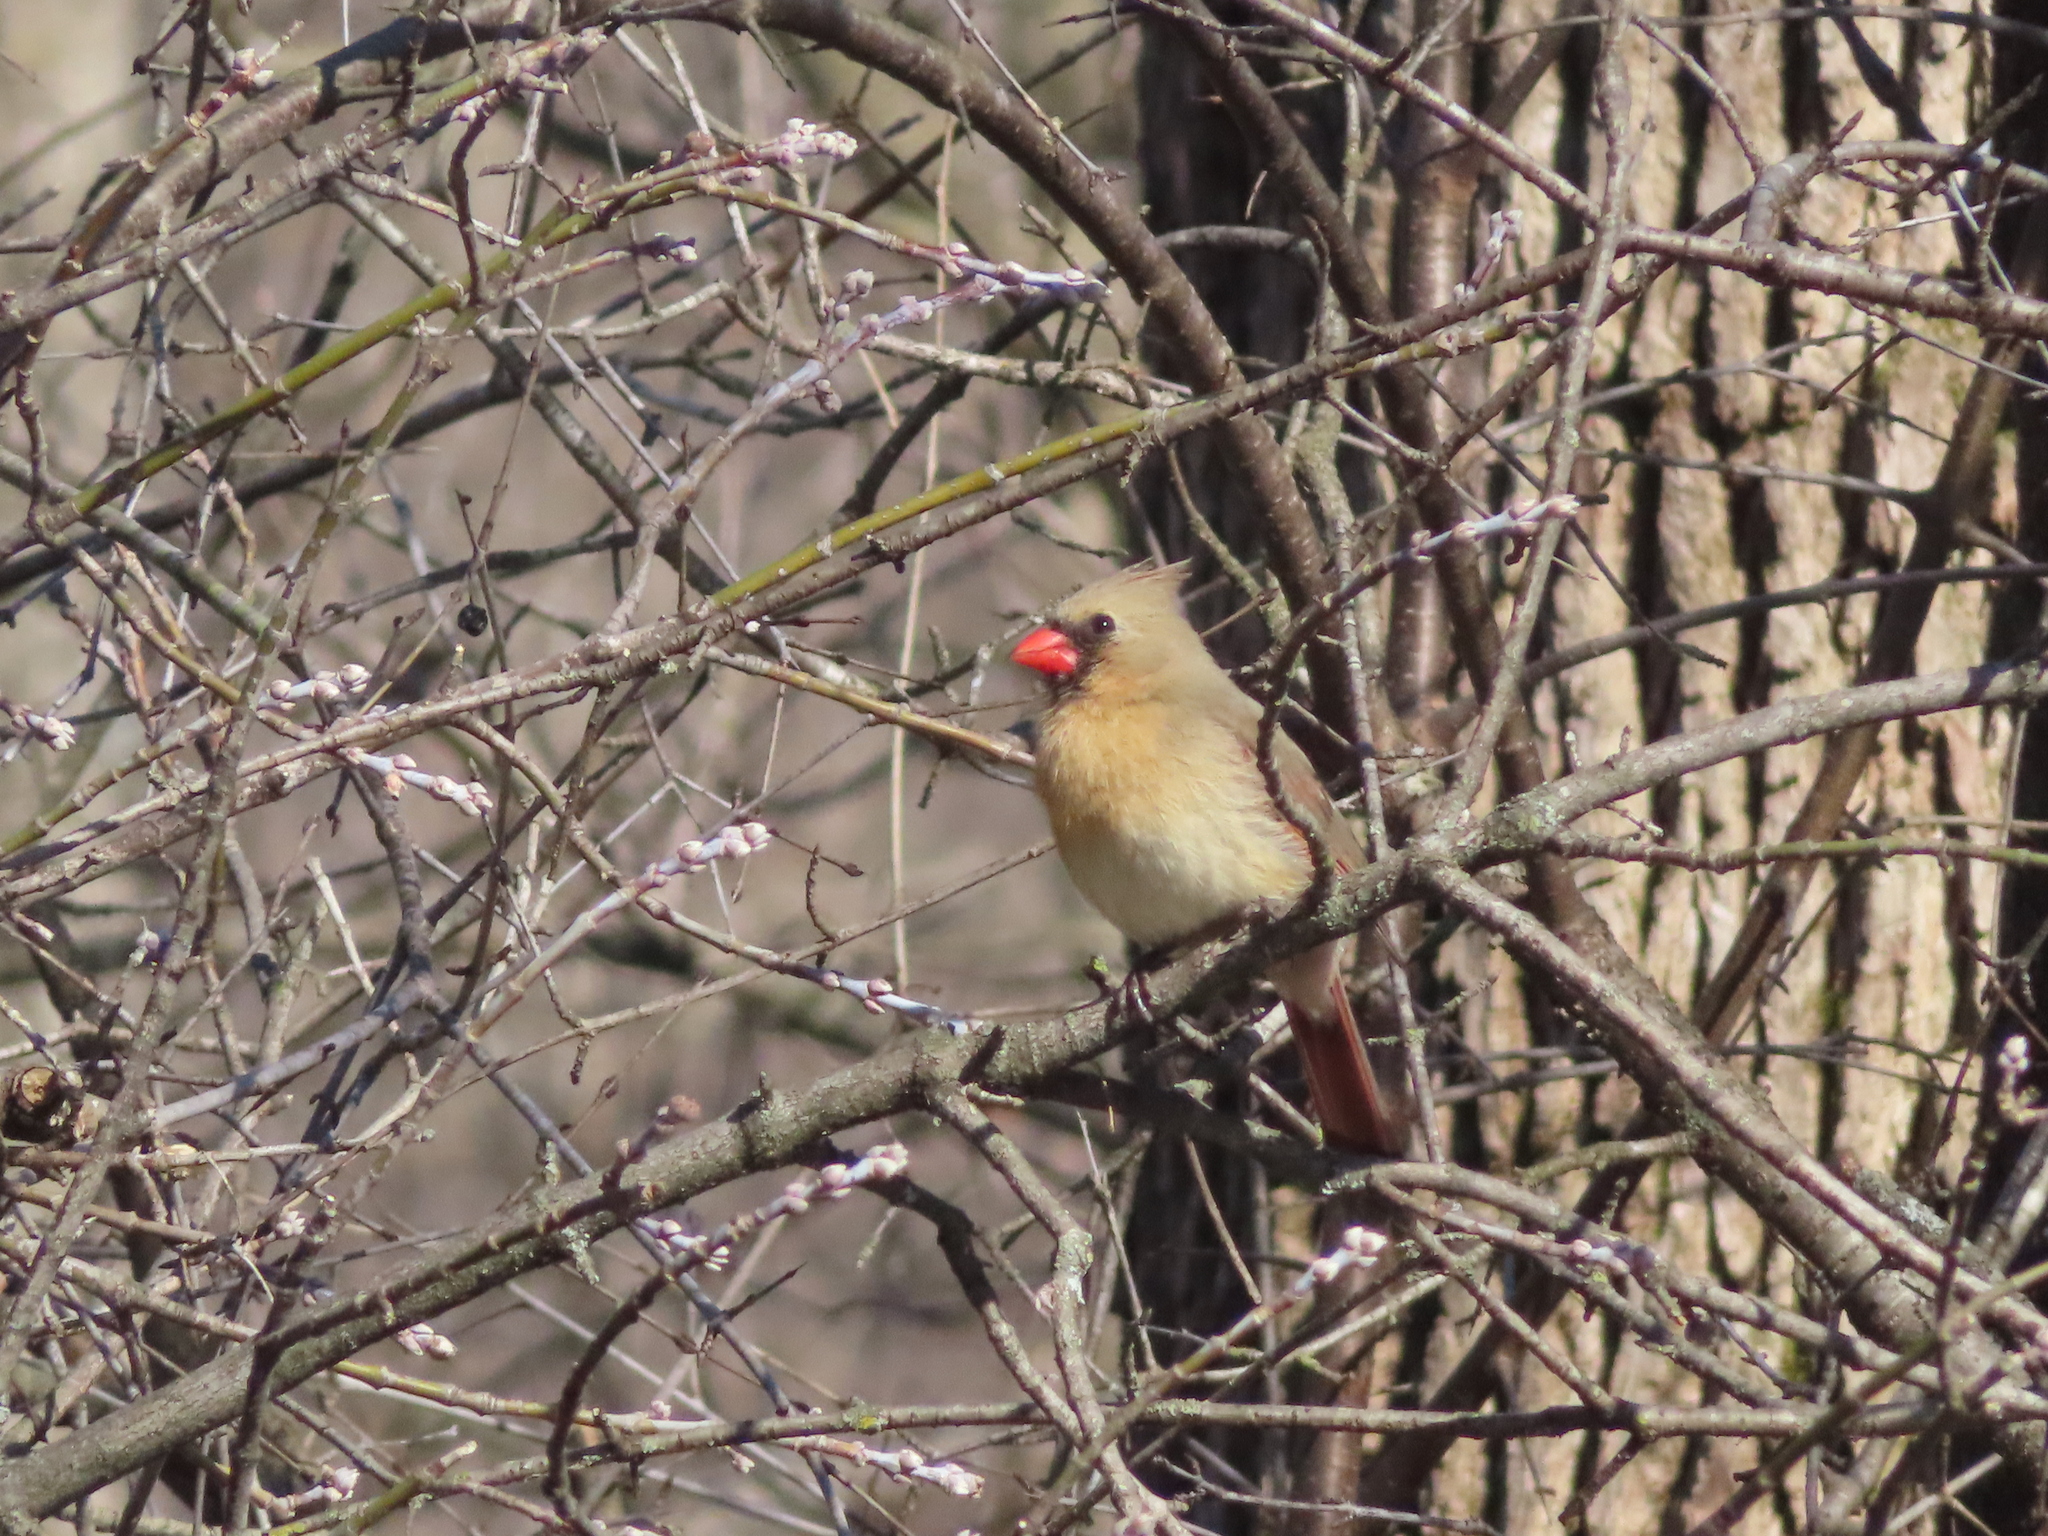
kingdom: Animalia
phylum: Chordata
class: Aves
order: Passeriformes
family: Cardinalidae
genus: Cardinalis
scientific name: Cardinalis cardinalis
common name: Northern cardinal
